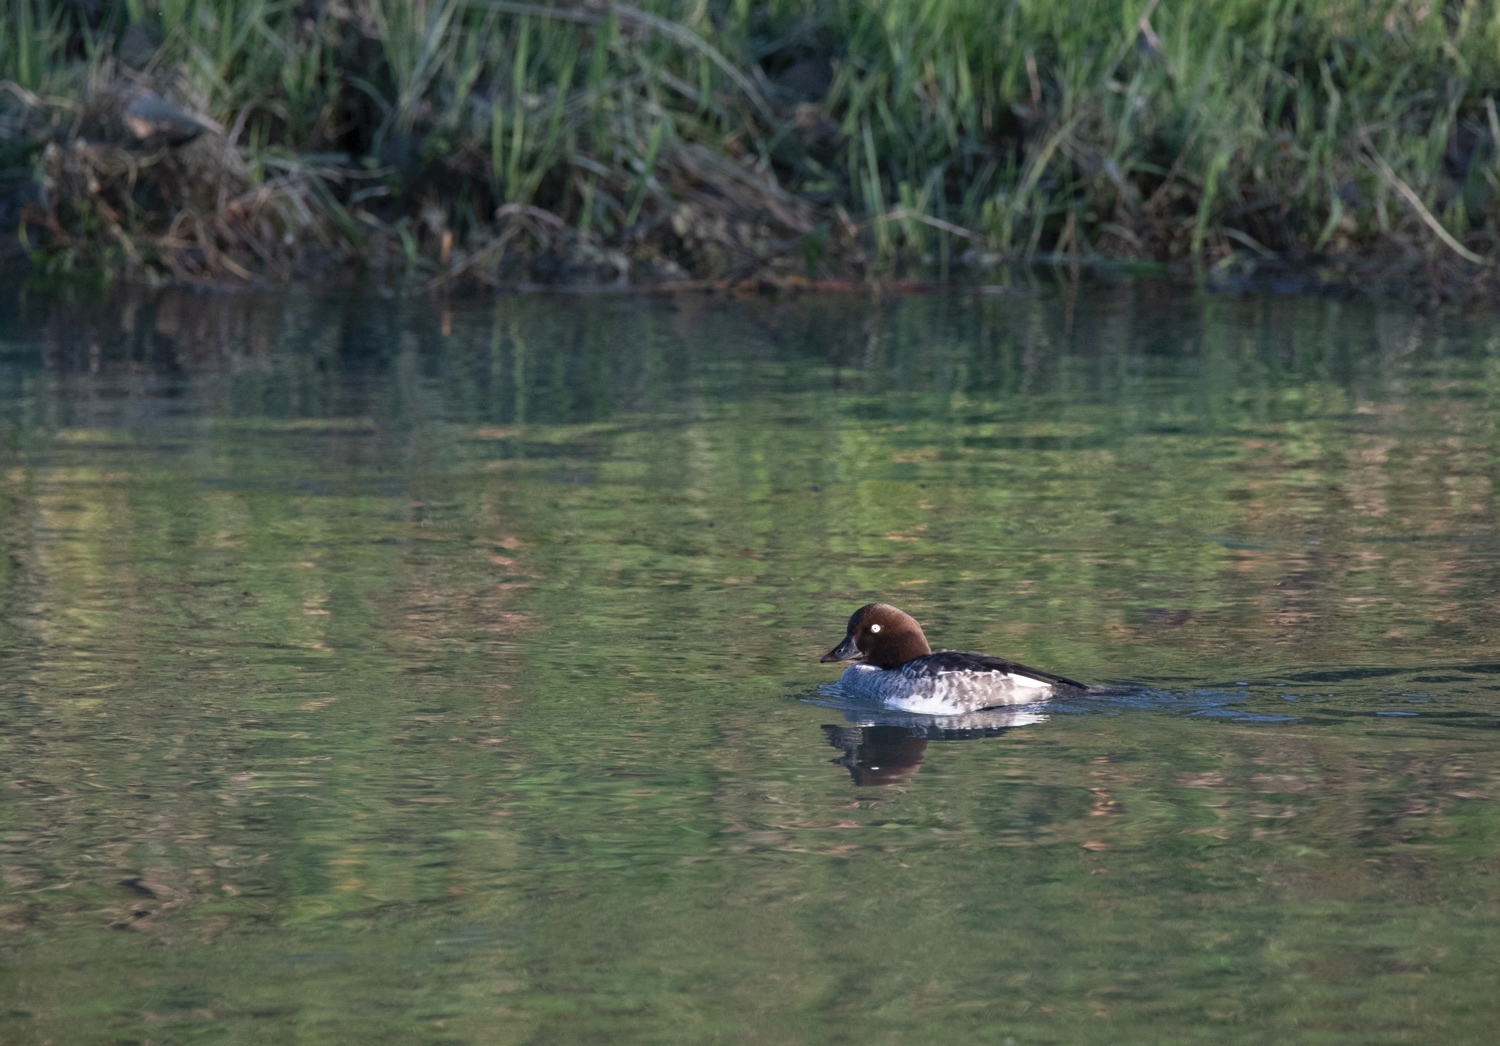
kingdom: Animalia
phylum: Chordata
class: Aves
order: Anseriformes
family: Anatidae
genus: Bucephala
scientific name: Bucephala clangula
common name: Common goldeneye
